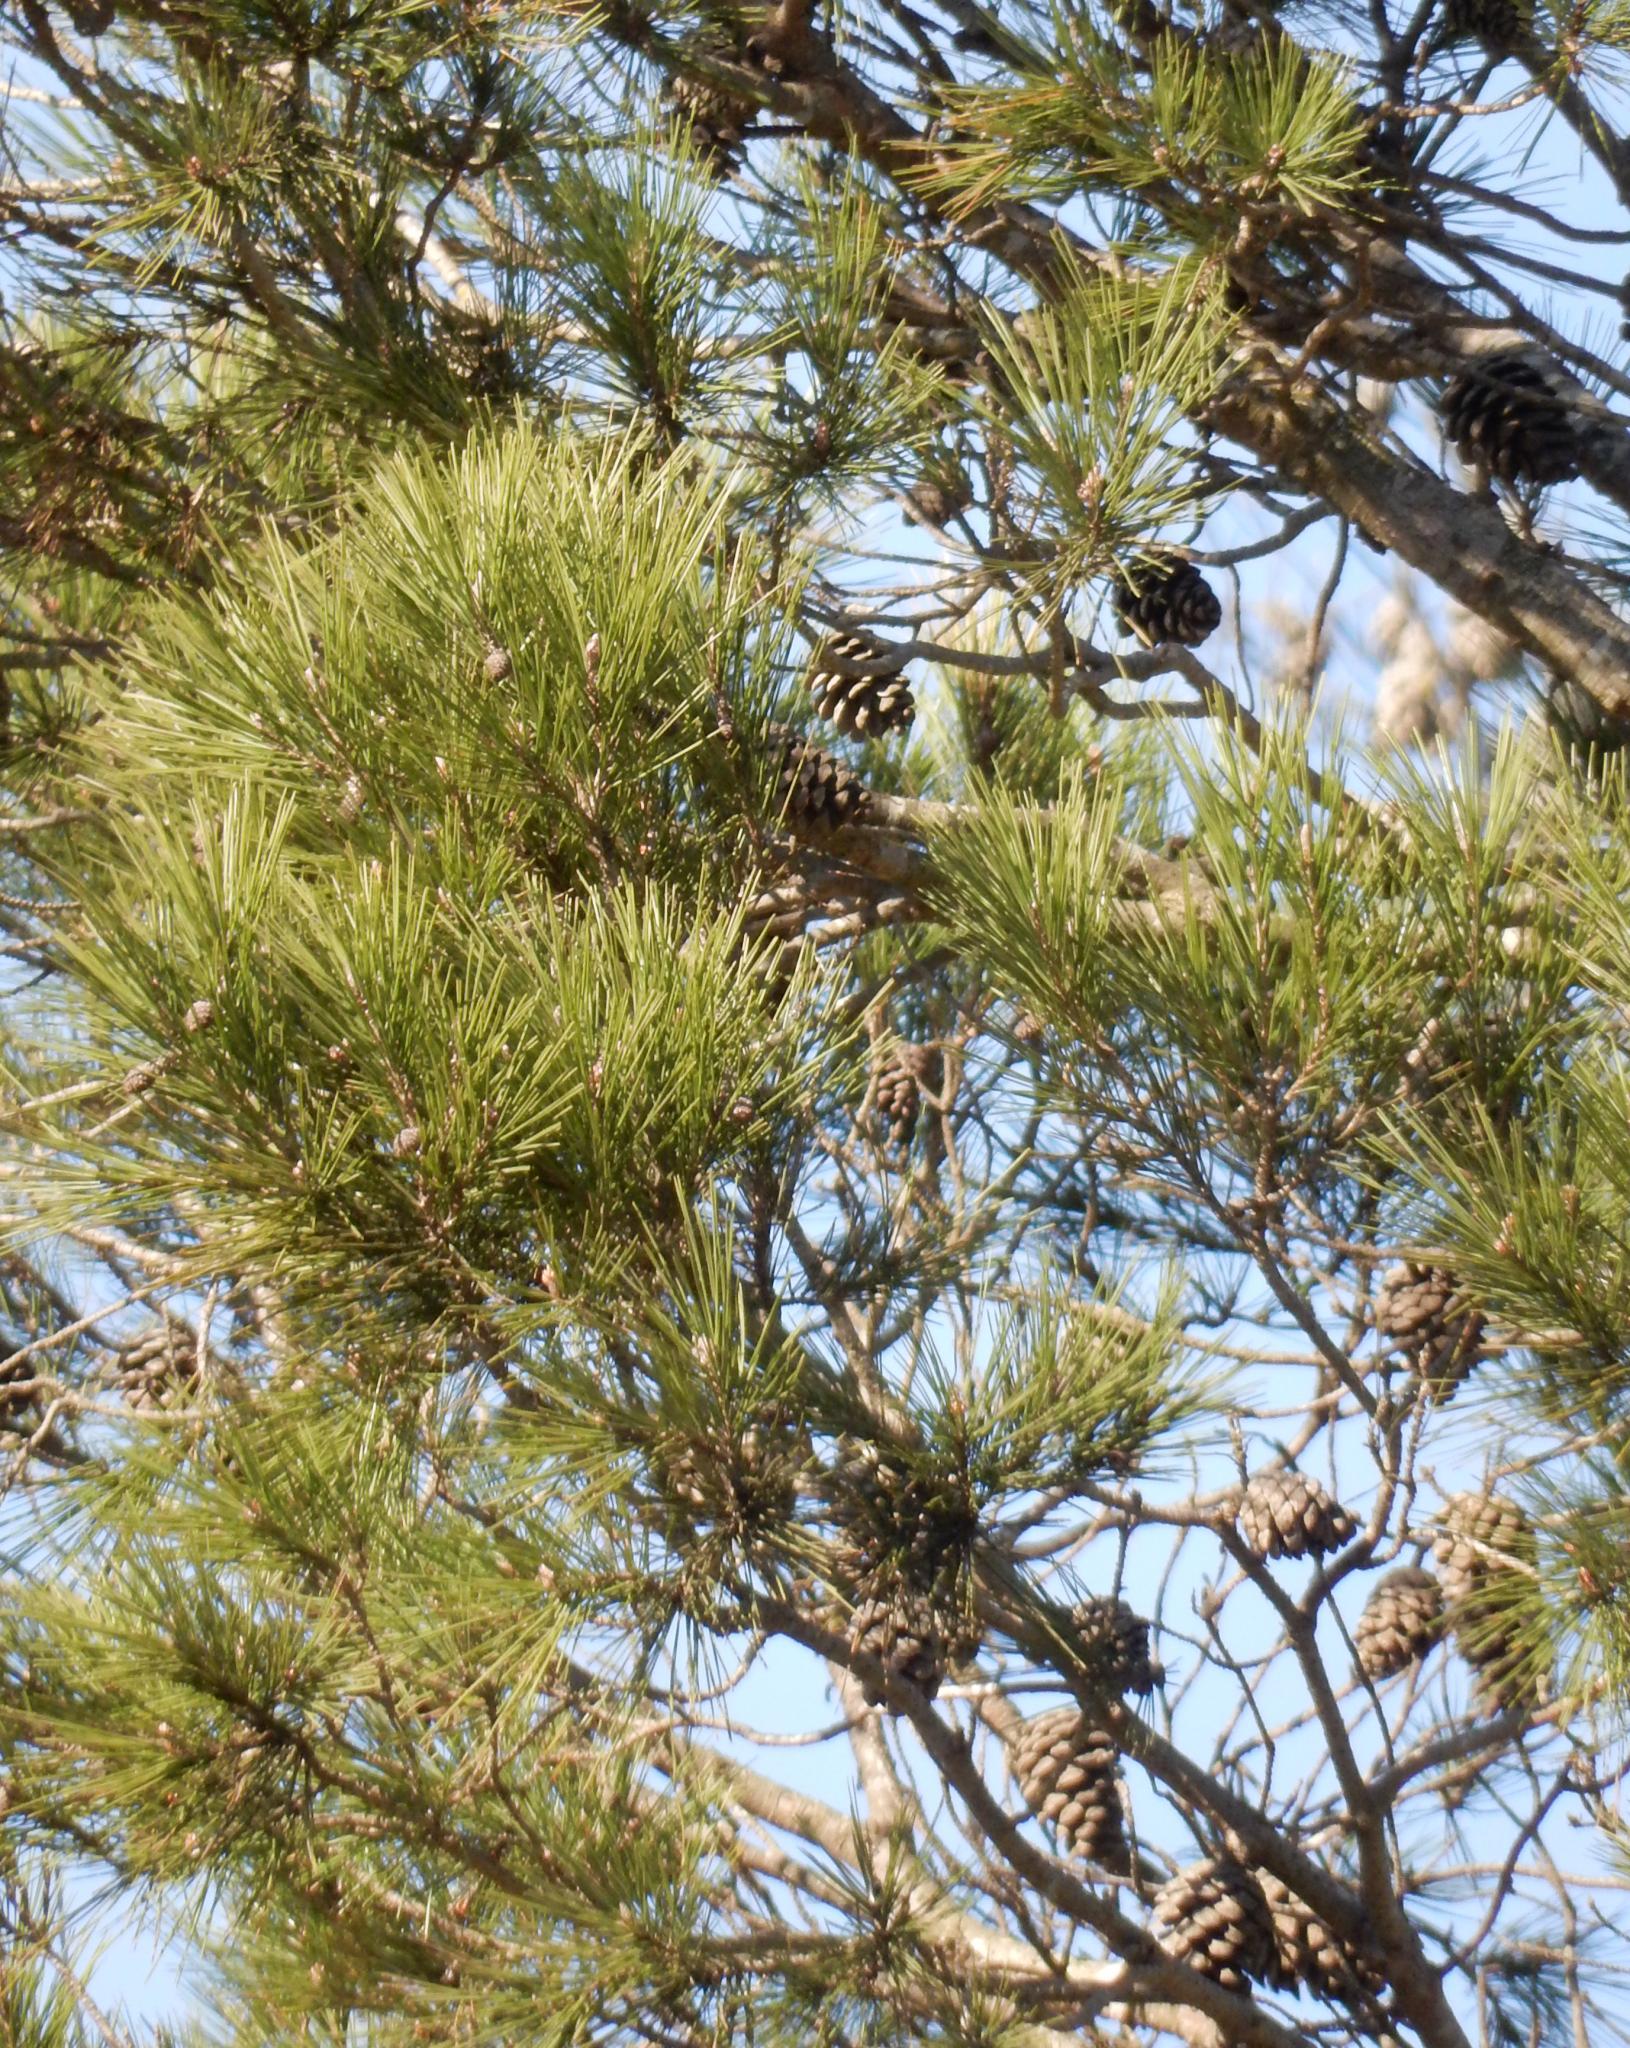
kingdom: Plantae
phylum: Tracheophyta
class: Pinopsida
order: Pinales
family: Pinaceae
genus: Pinus
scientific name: Pinus halepensis
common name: Aleppo pine
